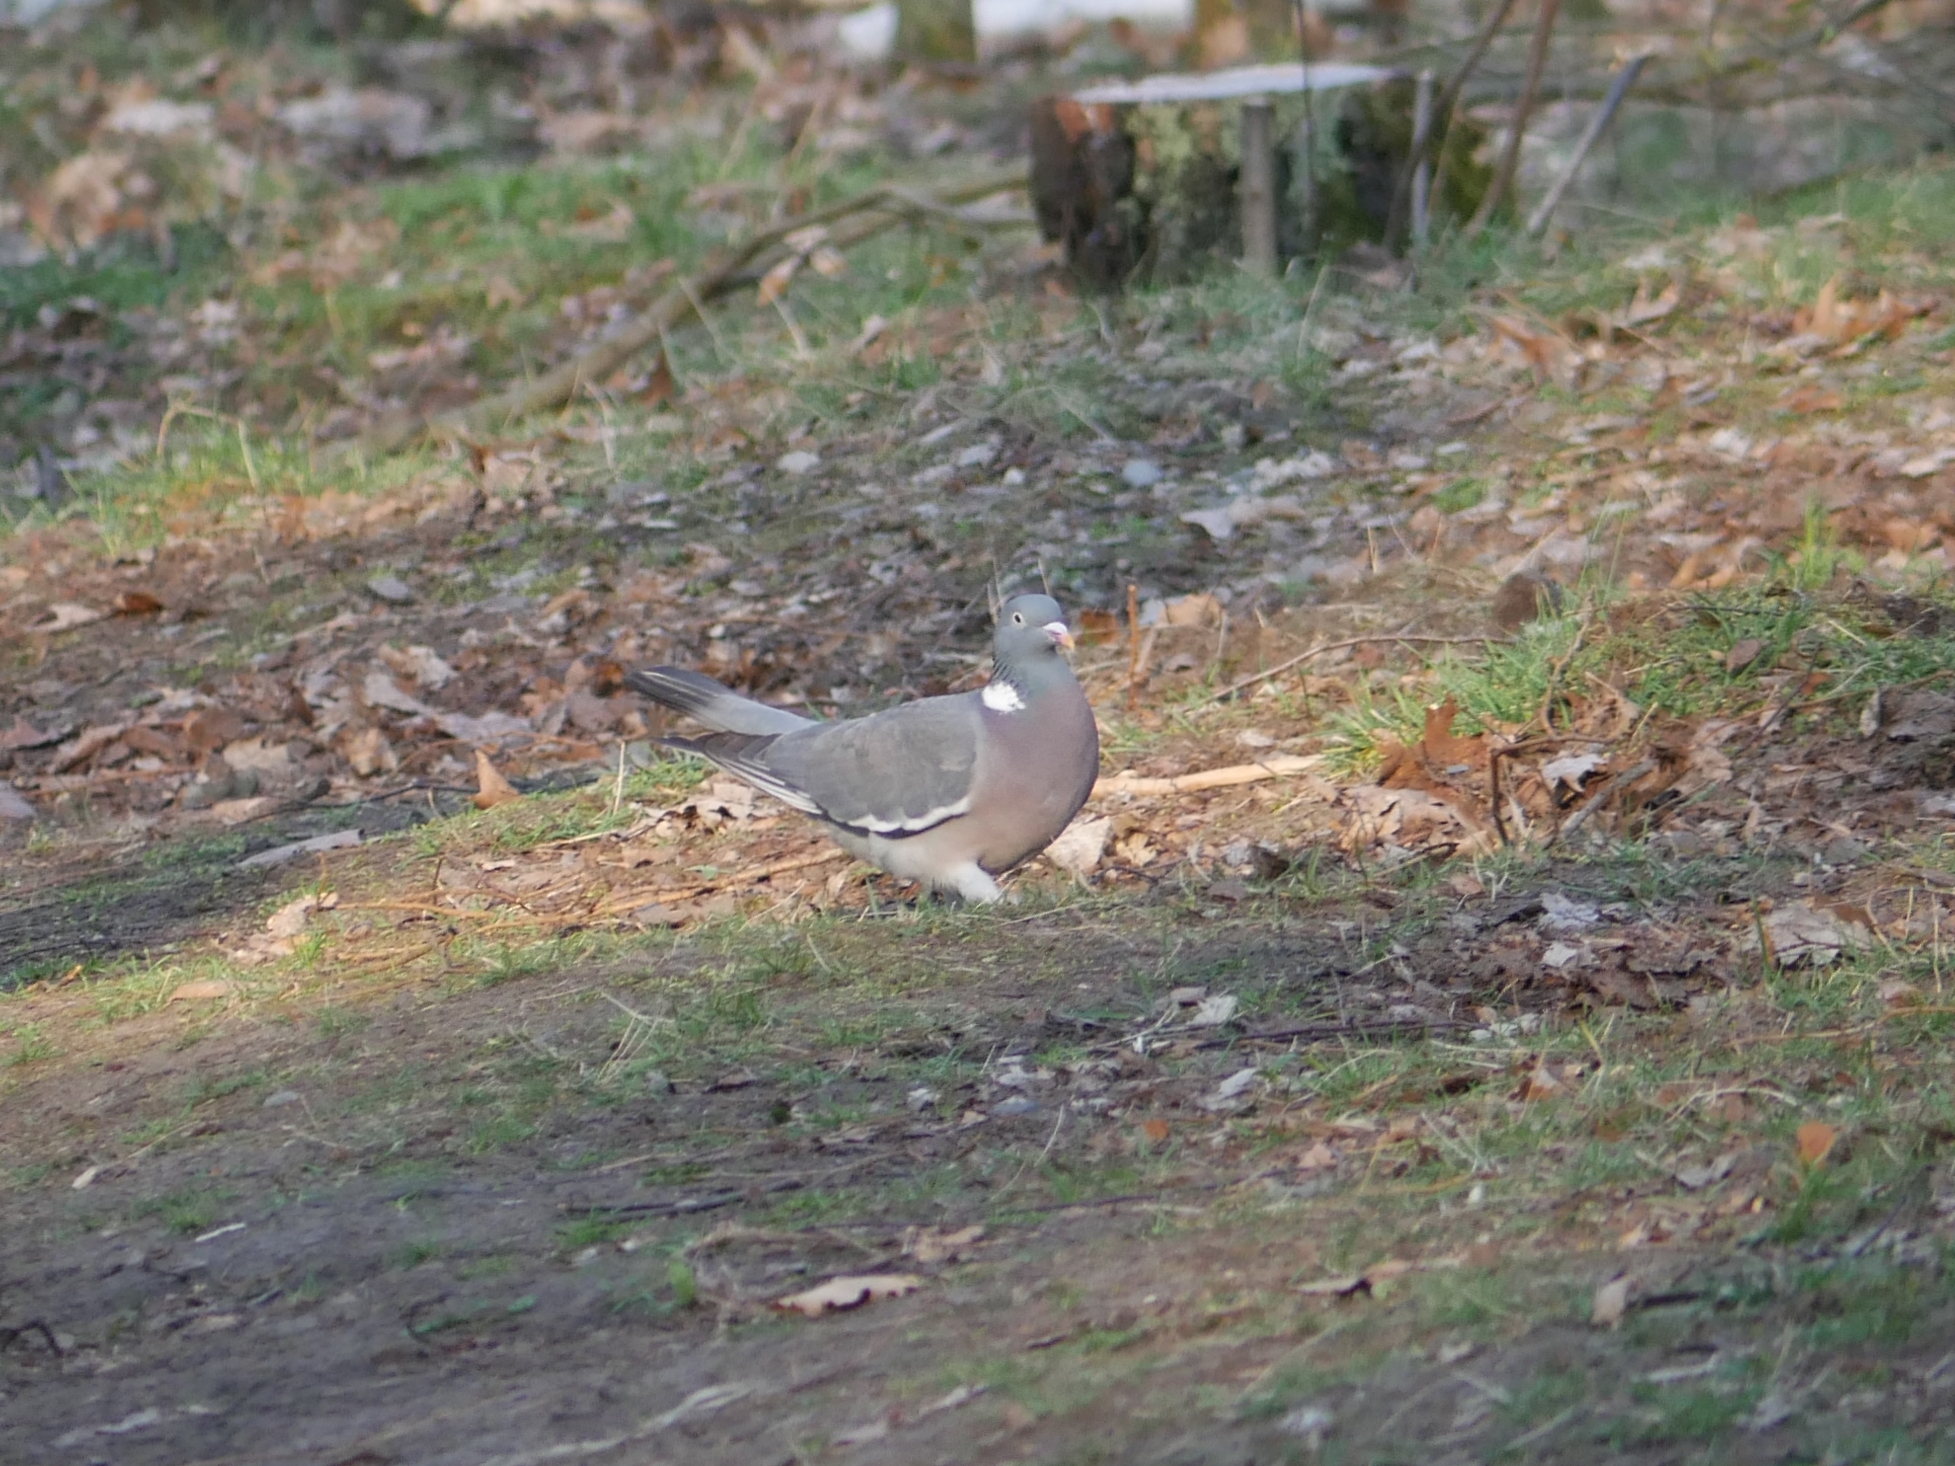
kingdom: Animalia
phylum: Chordata
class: Aves
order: Columbiformes
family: Columbidae
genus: Columba
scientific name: Columba palumbus
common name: Common wood pigeon
